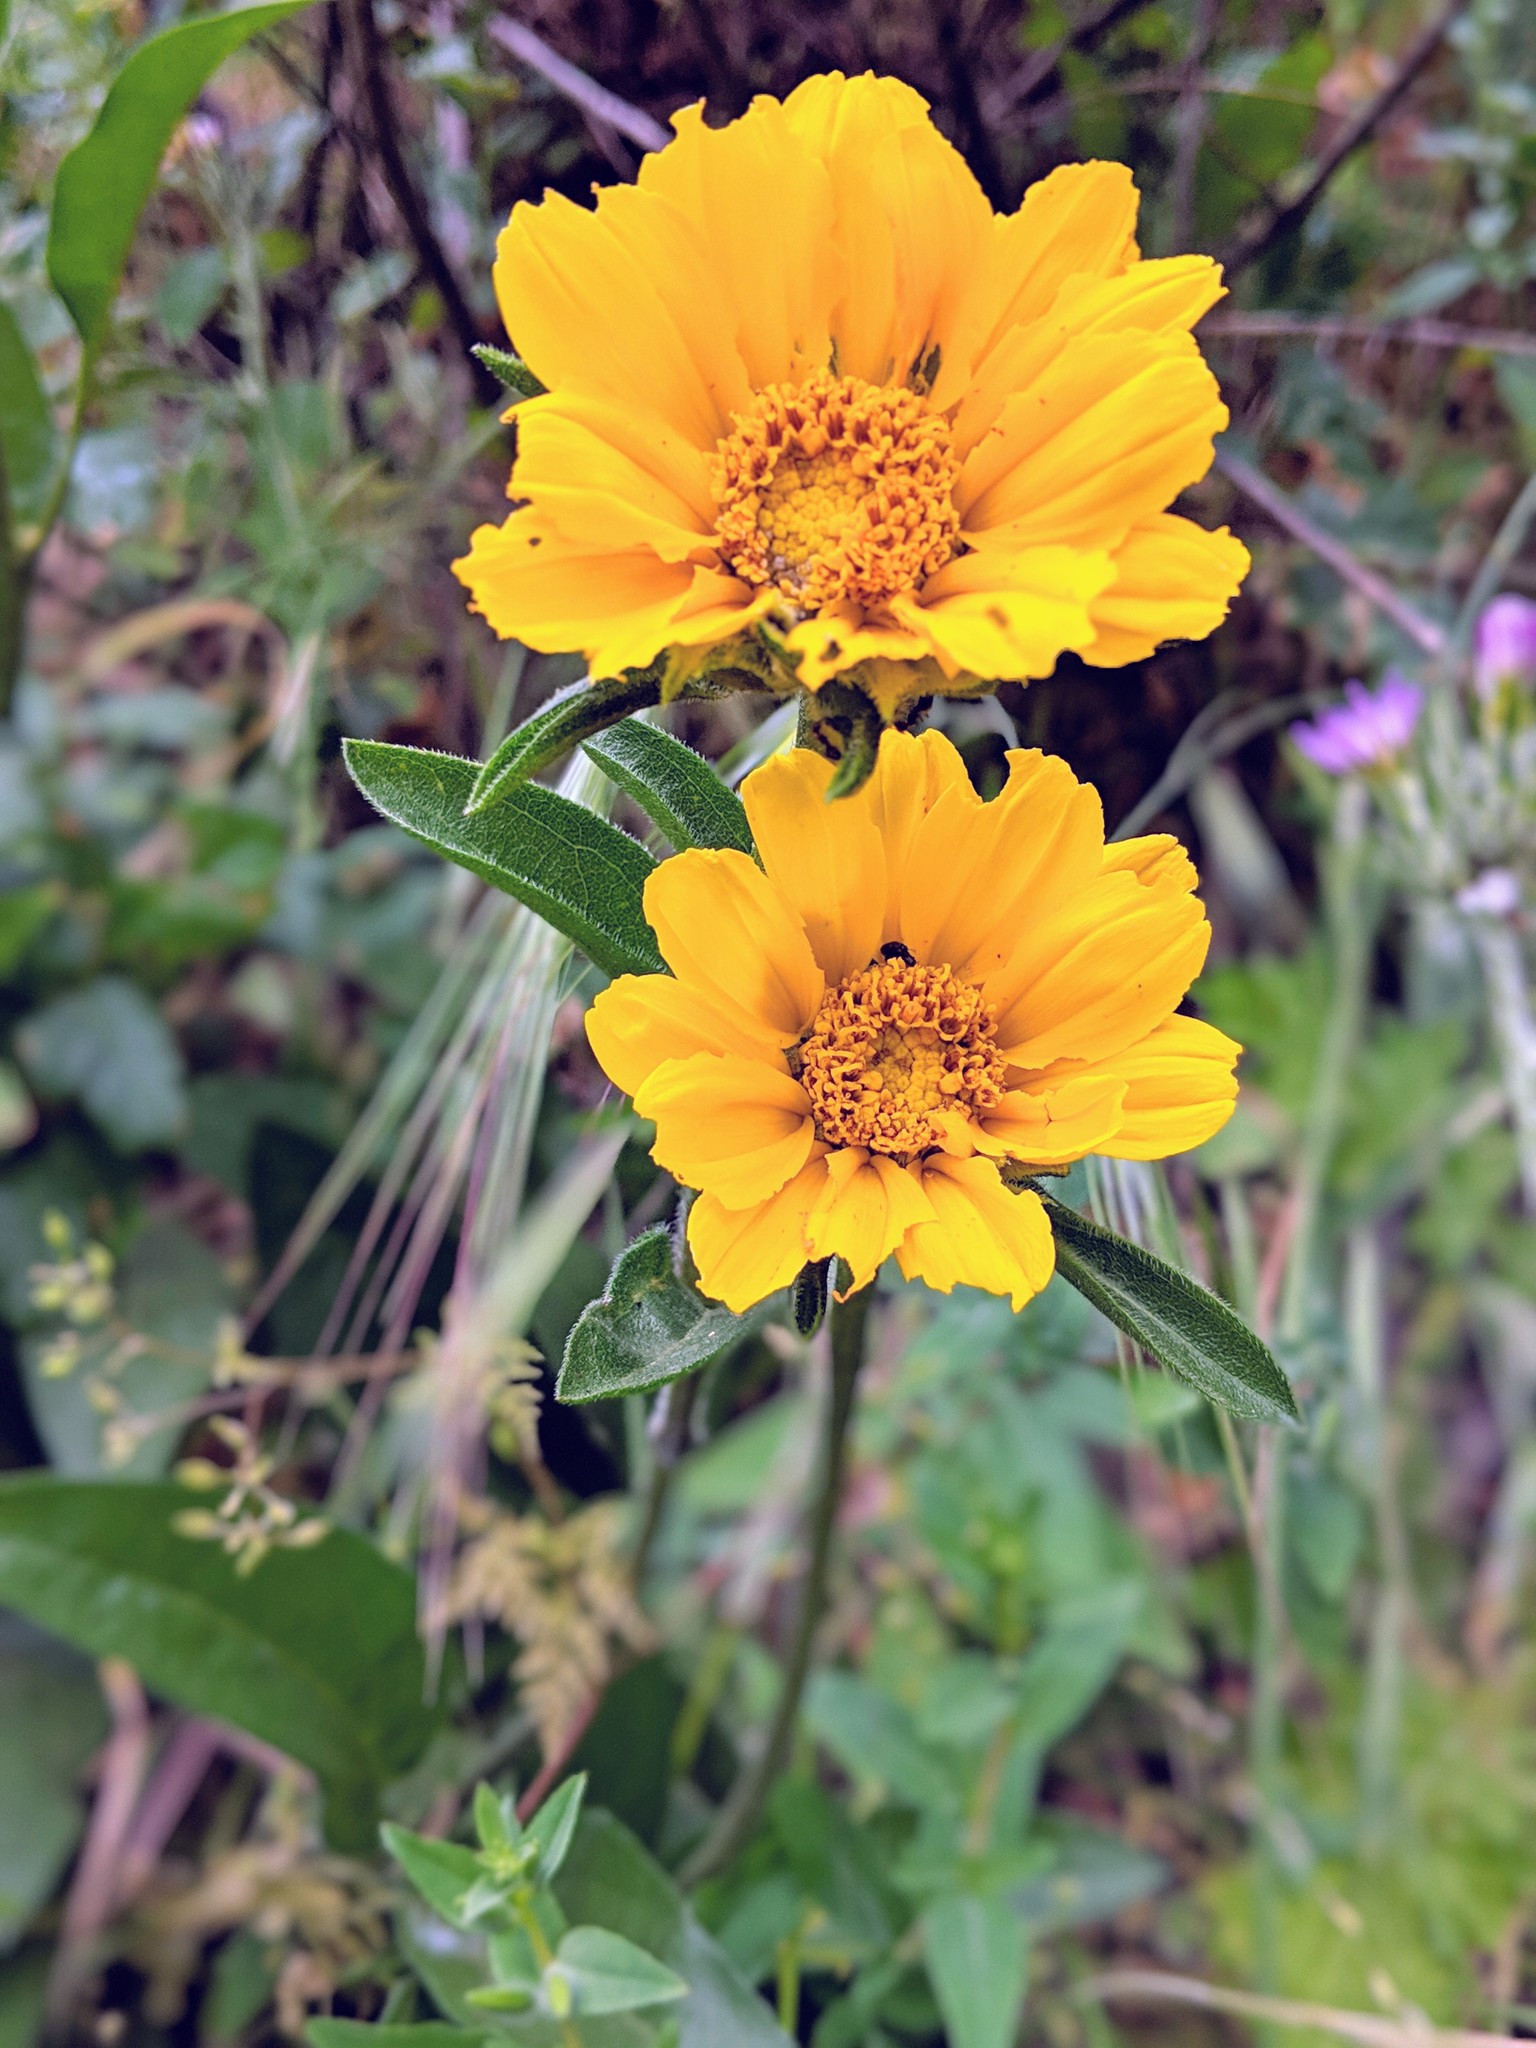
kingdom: Plantae
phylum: Tracheophyta
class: Magnoliopsida
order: Asterales
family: Asteraceae
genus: Helianthella
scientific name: Helianthella castanea
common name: Diablo helianthella
